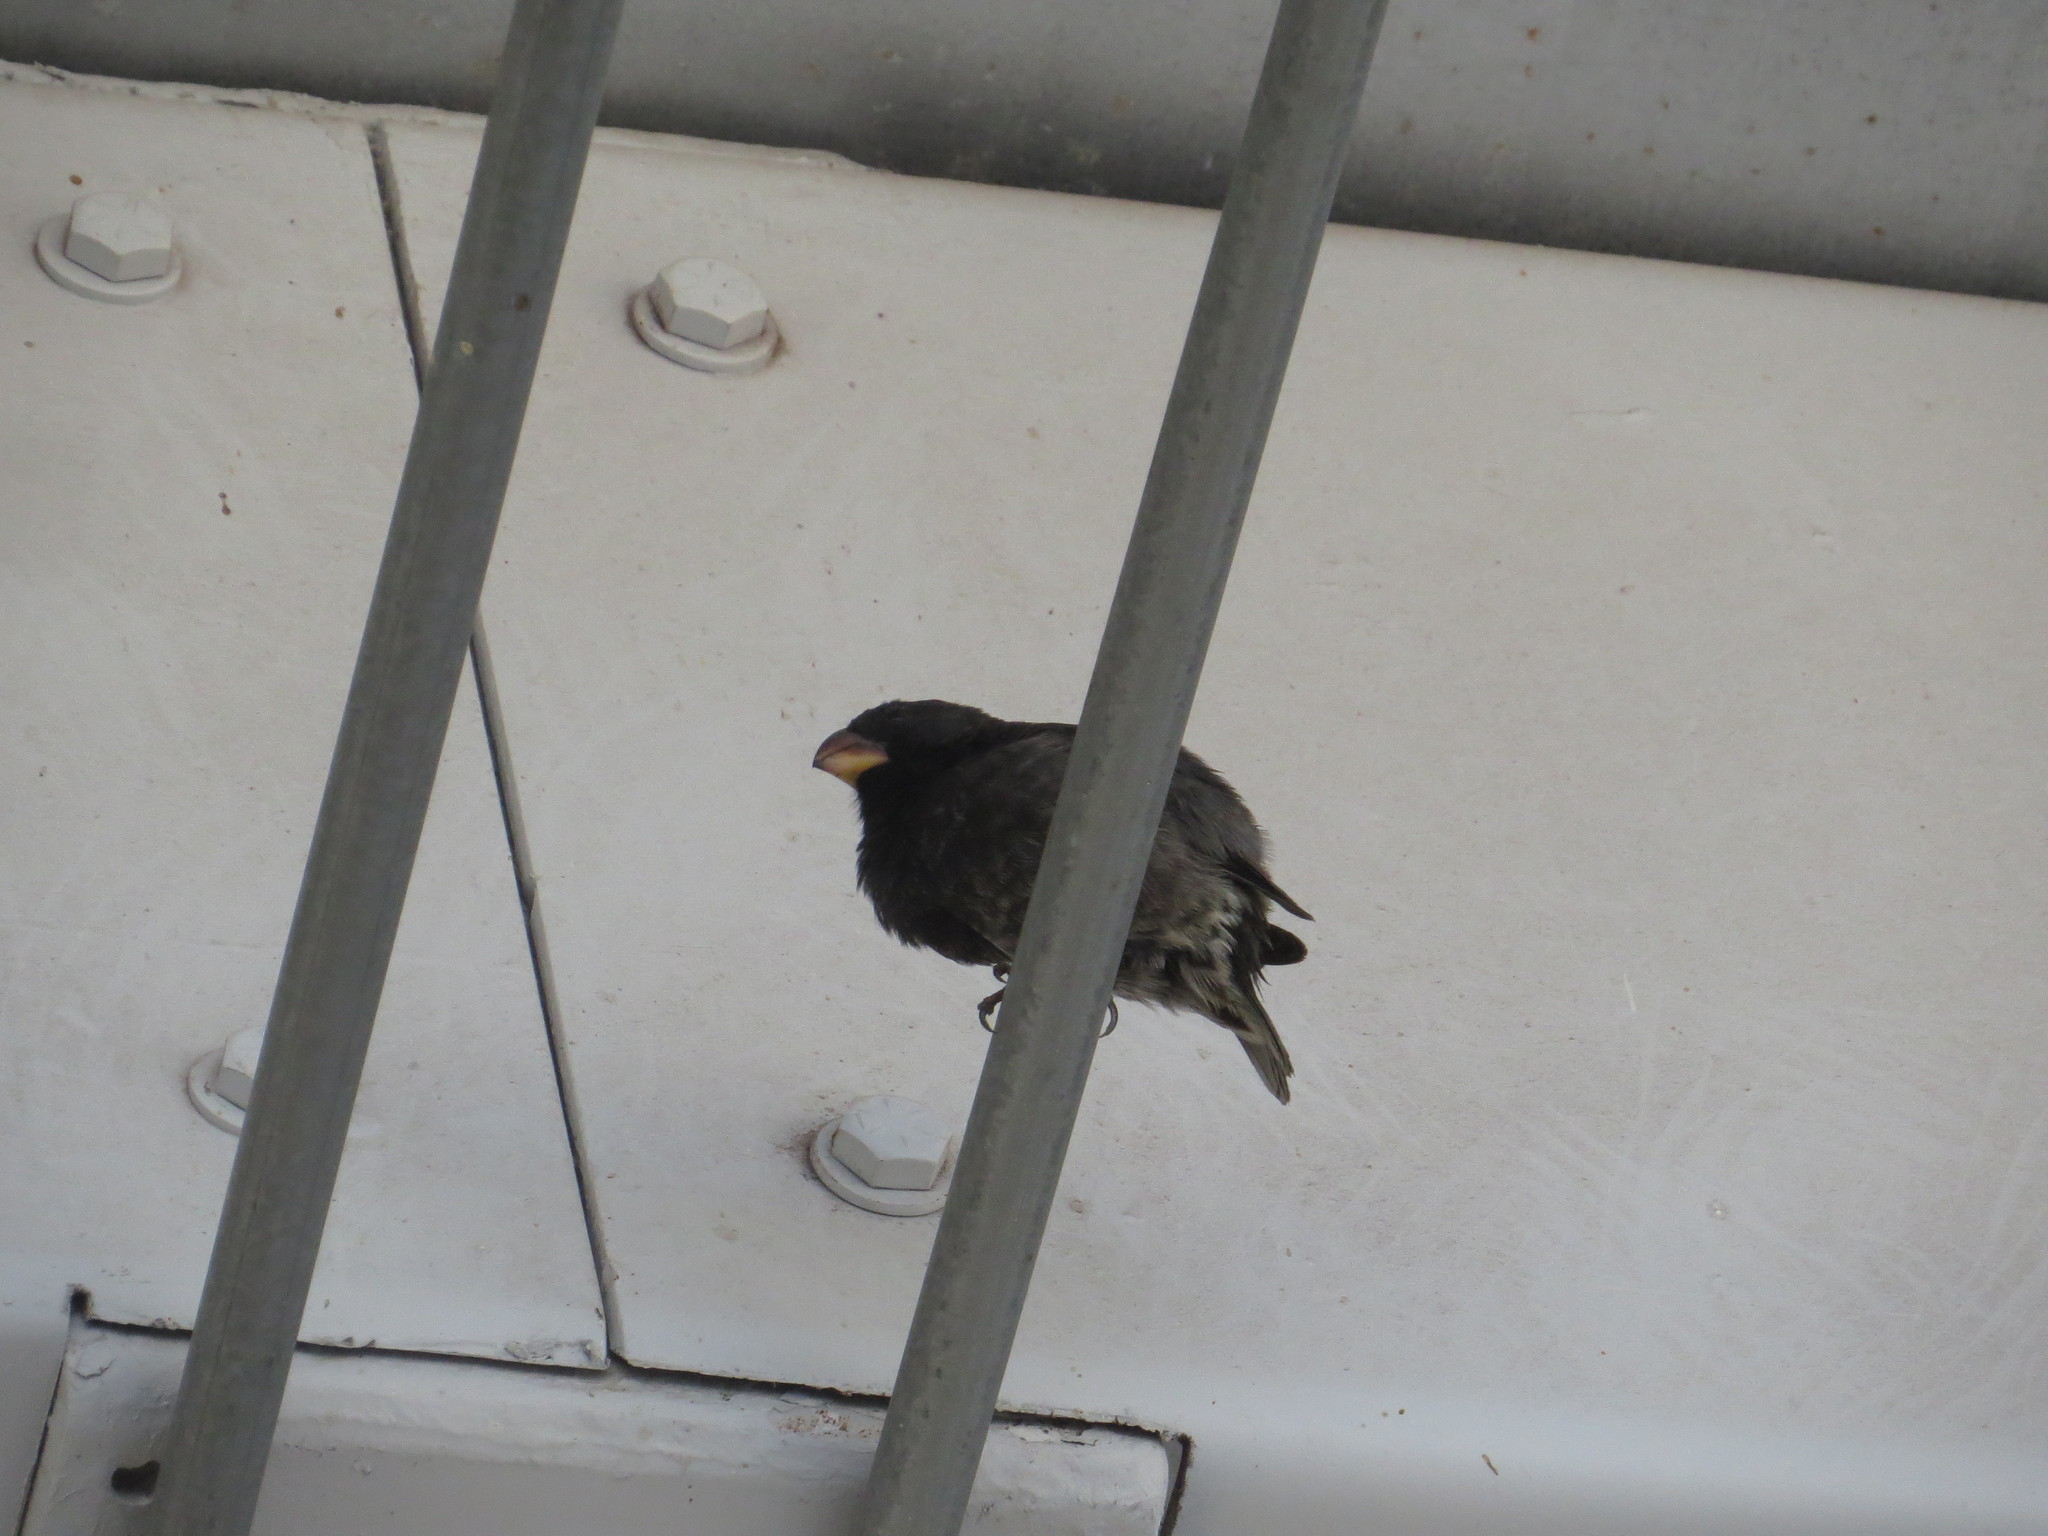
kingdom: Animalia
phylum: Chordata
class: Aves
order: Passeriformes
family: Thraupidae
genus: Geospiza
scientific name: Geospiza fortis
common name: Medium ground finch
